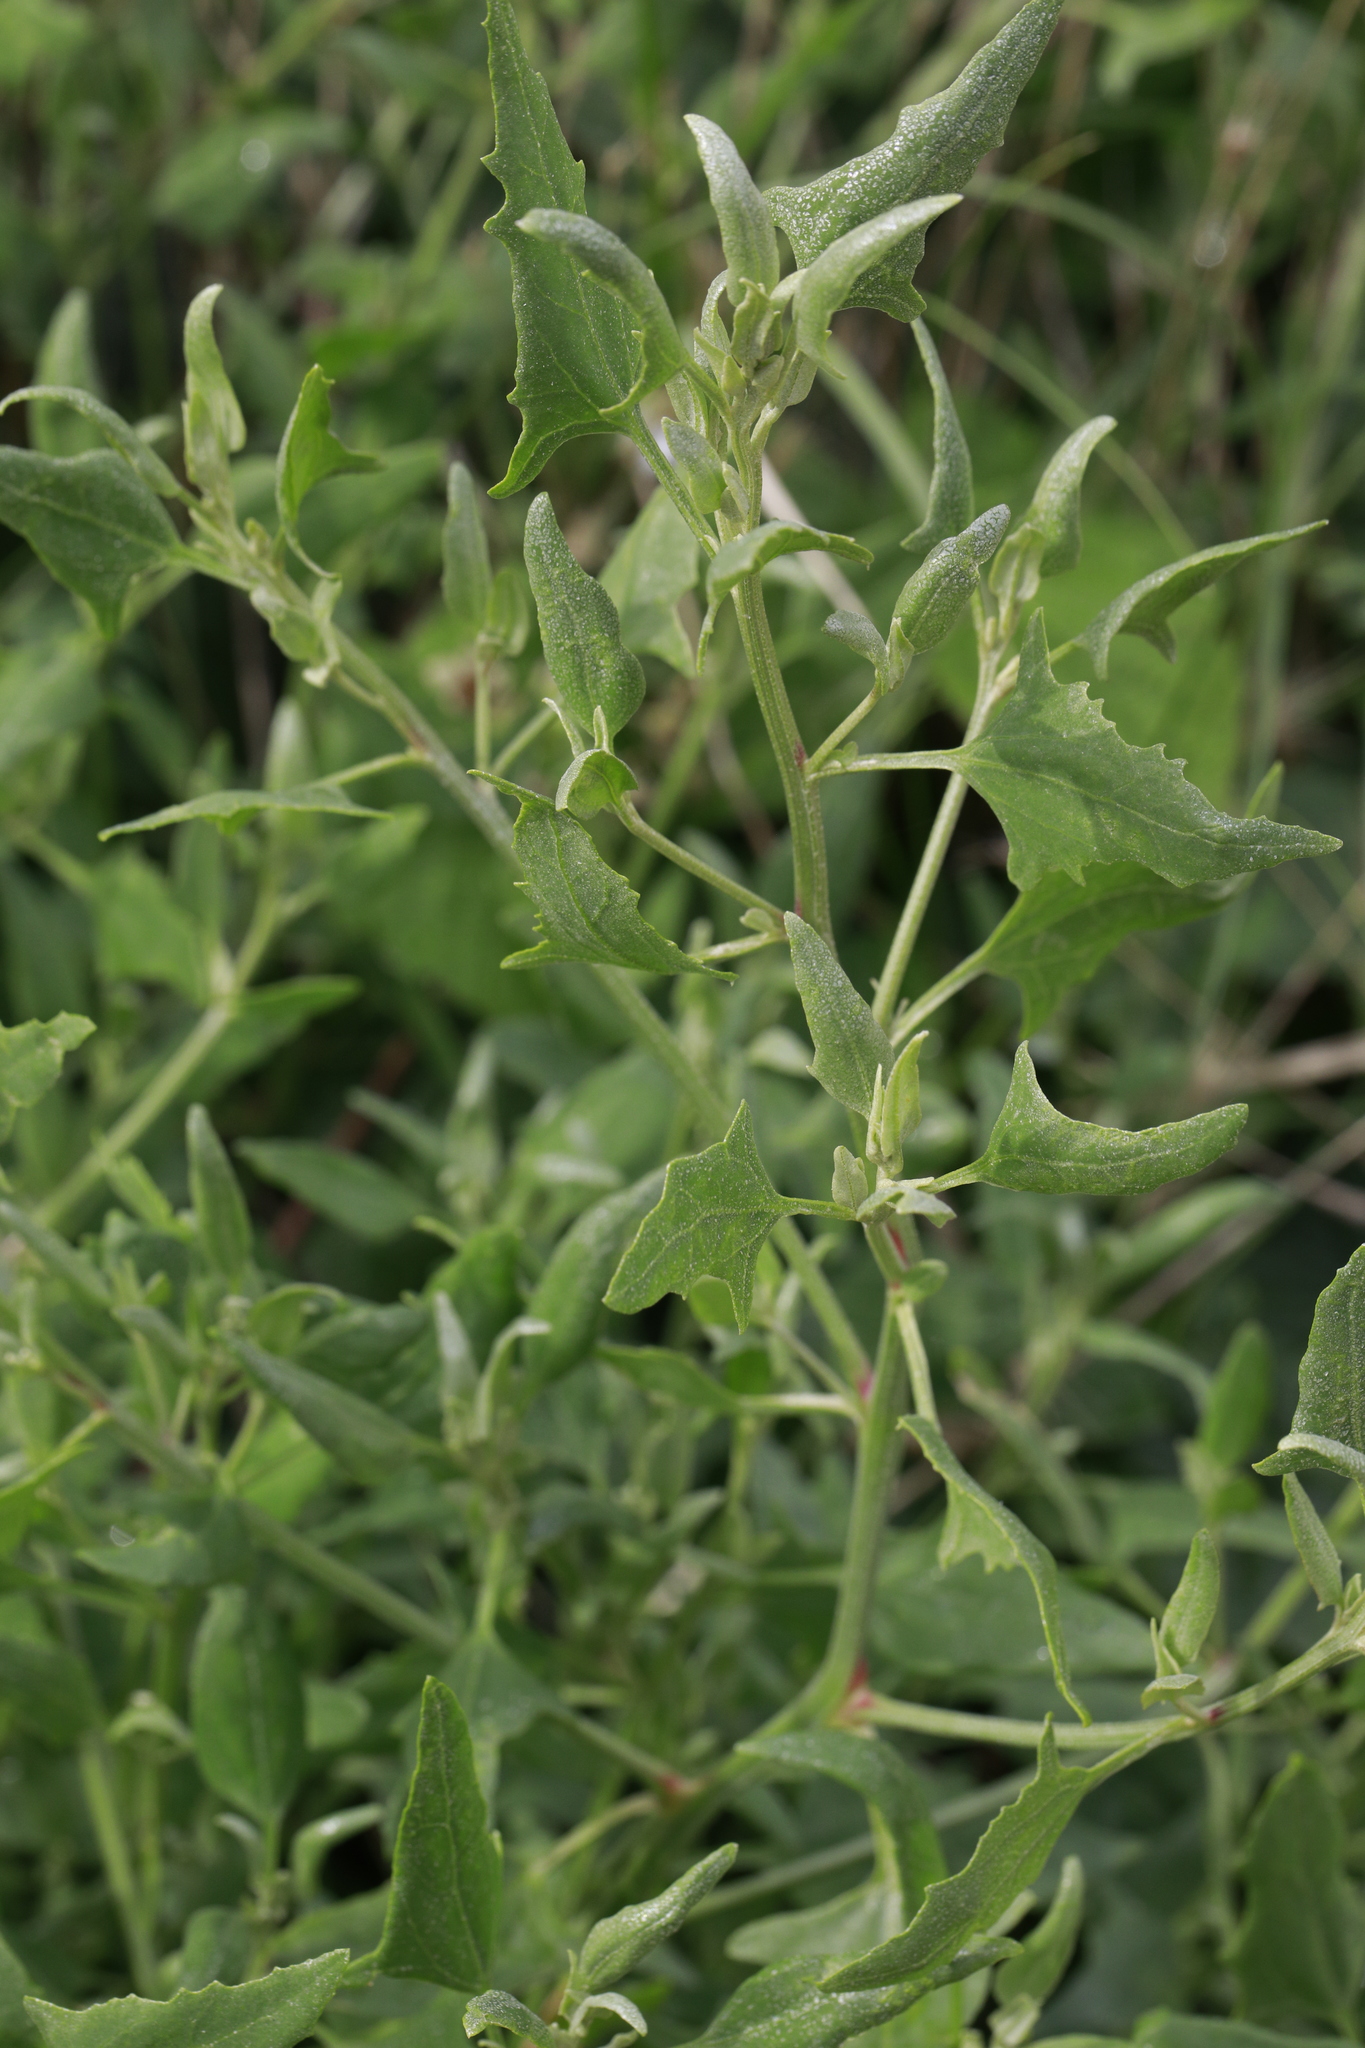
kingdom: Plantae
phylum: Tracheophyta
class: Magnoliopsida
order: Caryophyllales
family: Amaranthaceae
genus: Atriplex
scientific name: Atriplex prostrata
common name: Spear-leaved orache
